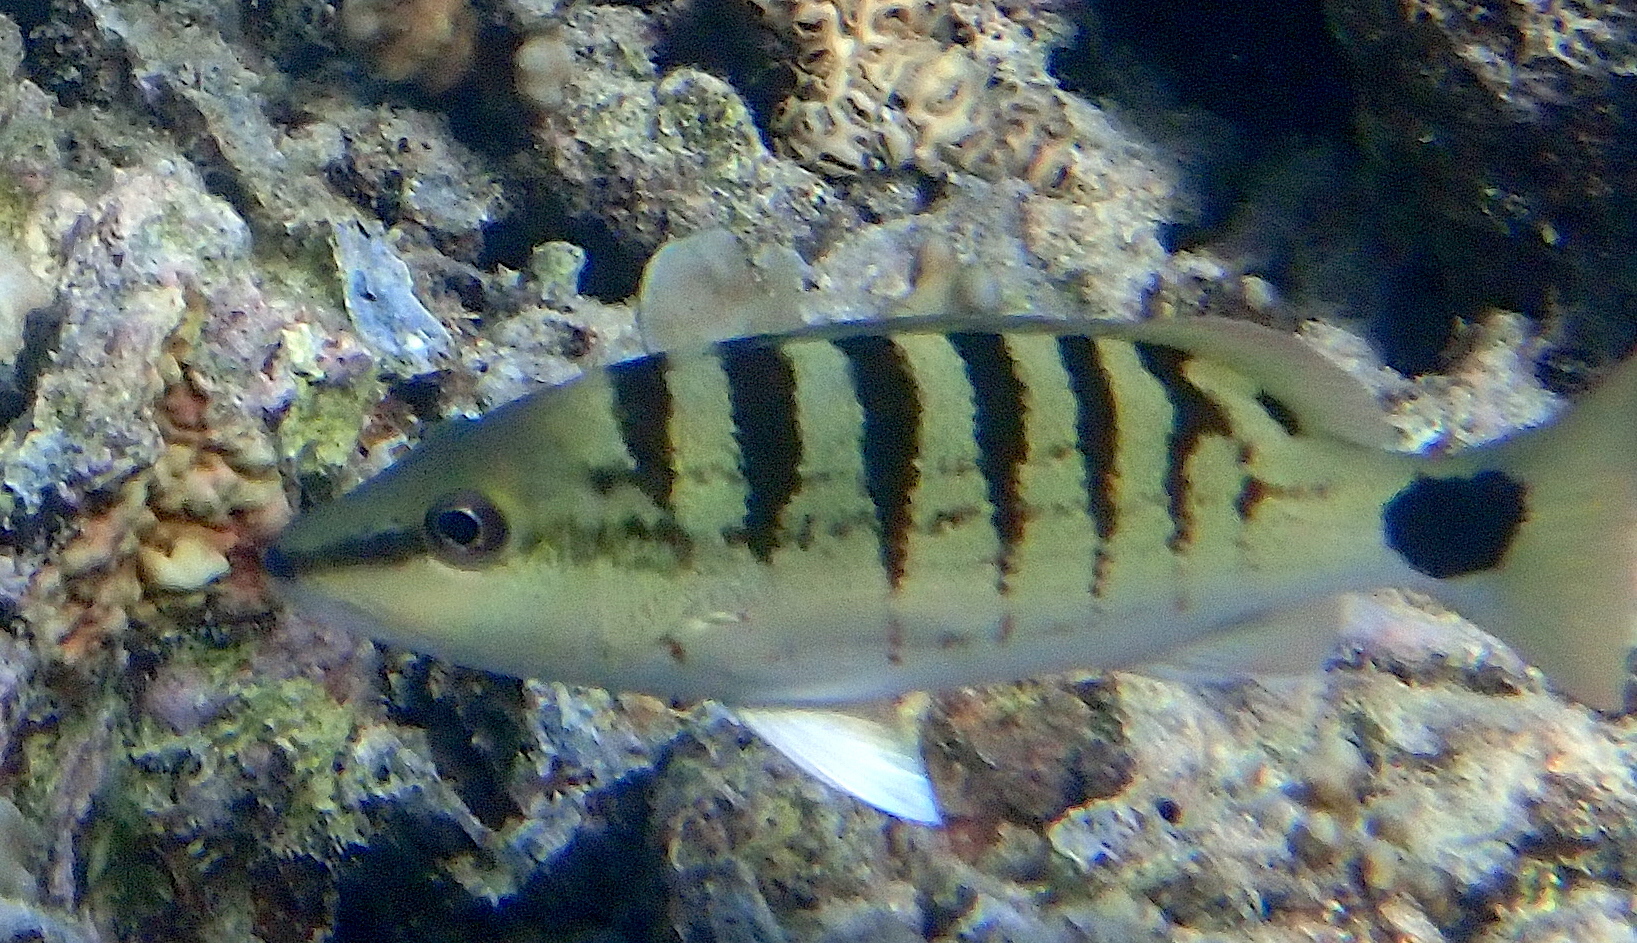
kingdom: Animalia
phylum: Chordata
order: Perciformes
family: Lutjanidae
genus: Lutjanus
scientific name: Lutjanus semicinctus
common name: Half-barred snapper
